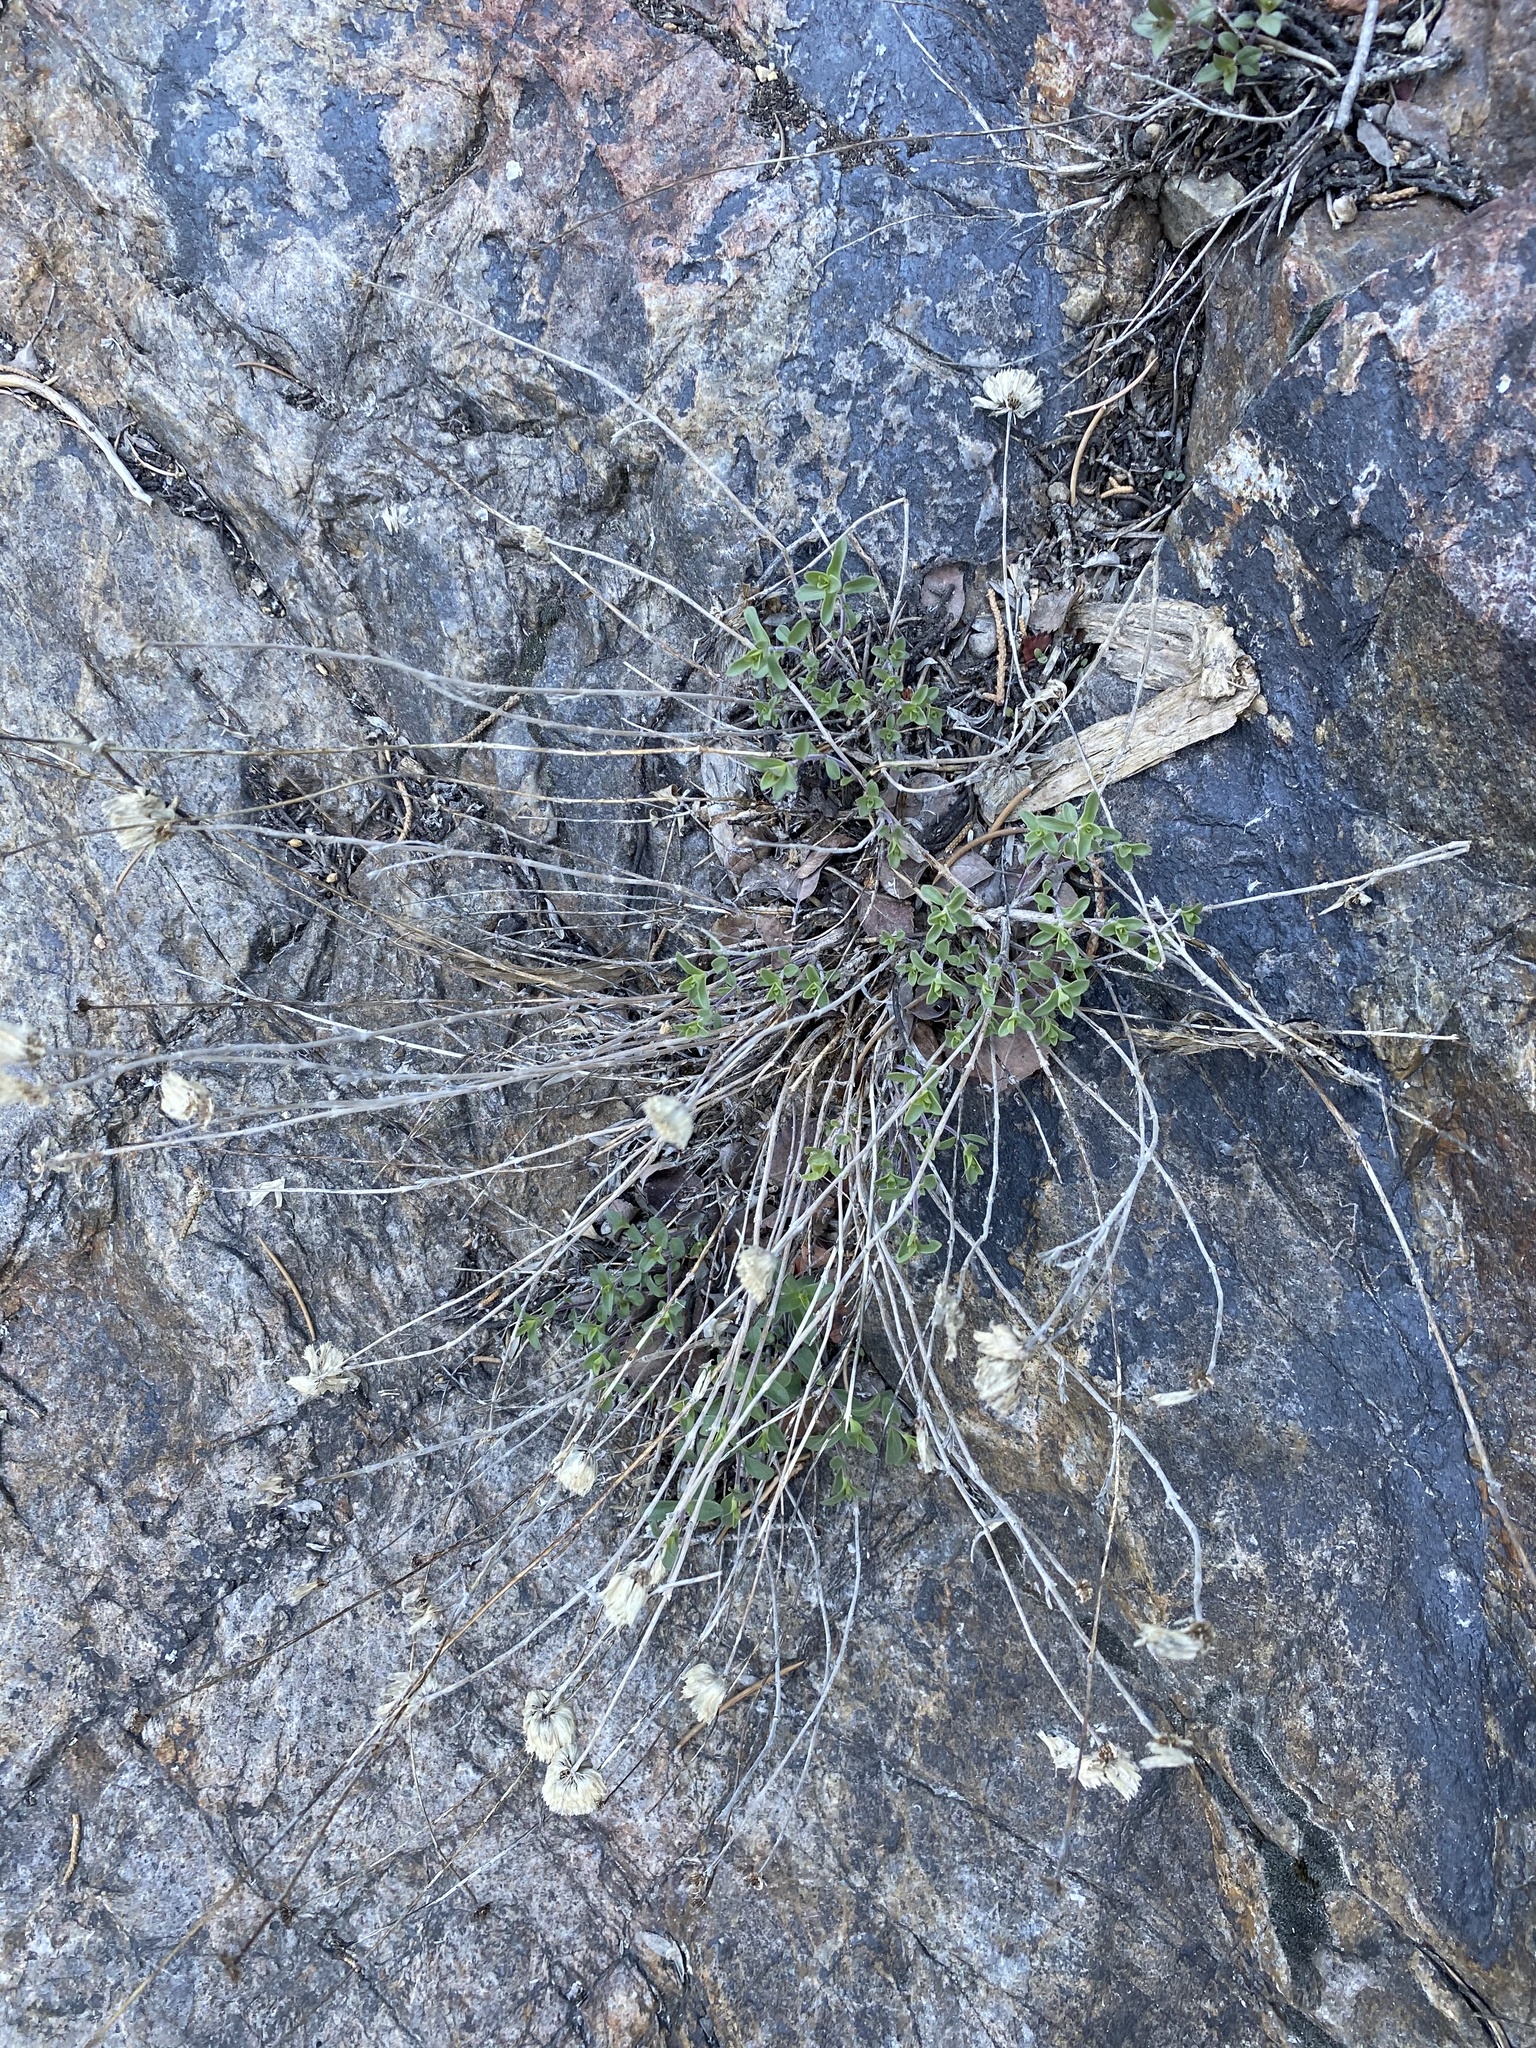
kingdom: Plantae
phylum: Tracheophyta
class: Magnoliopsida
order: Lamiales
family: Lamiaceae
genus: Monardella
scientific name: Monardella odoratissima
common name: Pacific monardella
